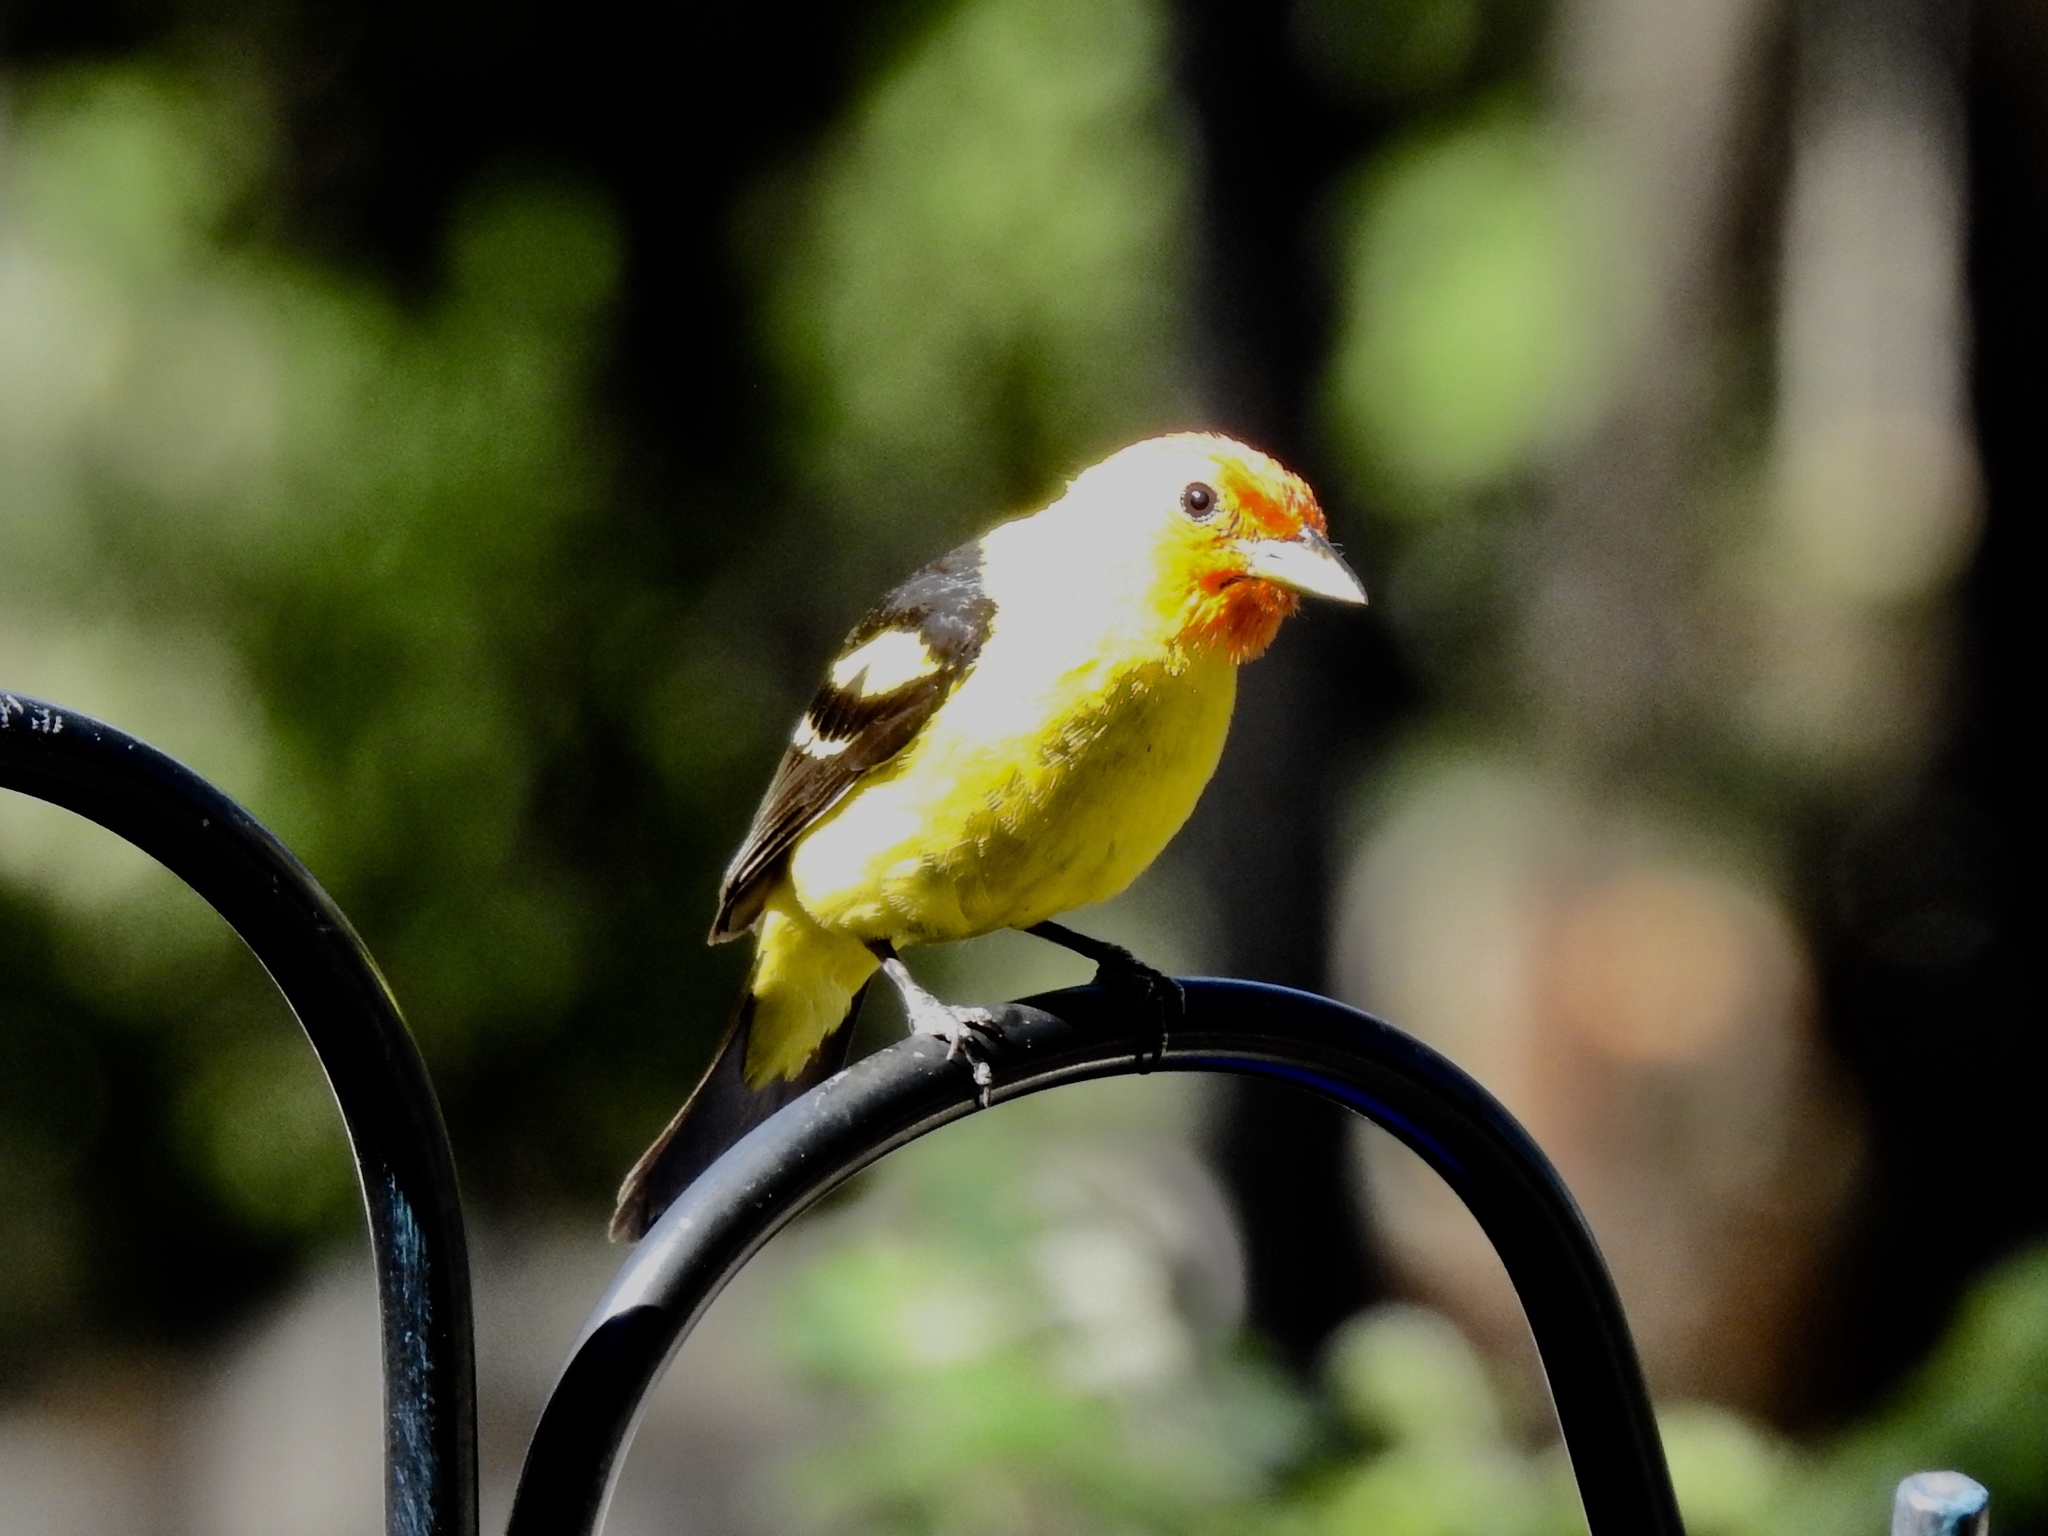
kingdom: Animalia
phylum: Chordata
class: Aves
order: Passeriformes
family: Cardinalidae
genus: Piranga
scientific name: Piranga ludoviciana
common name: Western tanager
